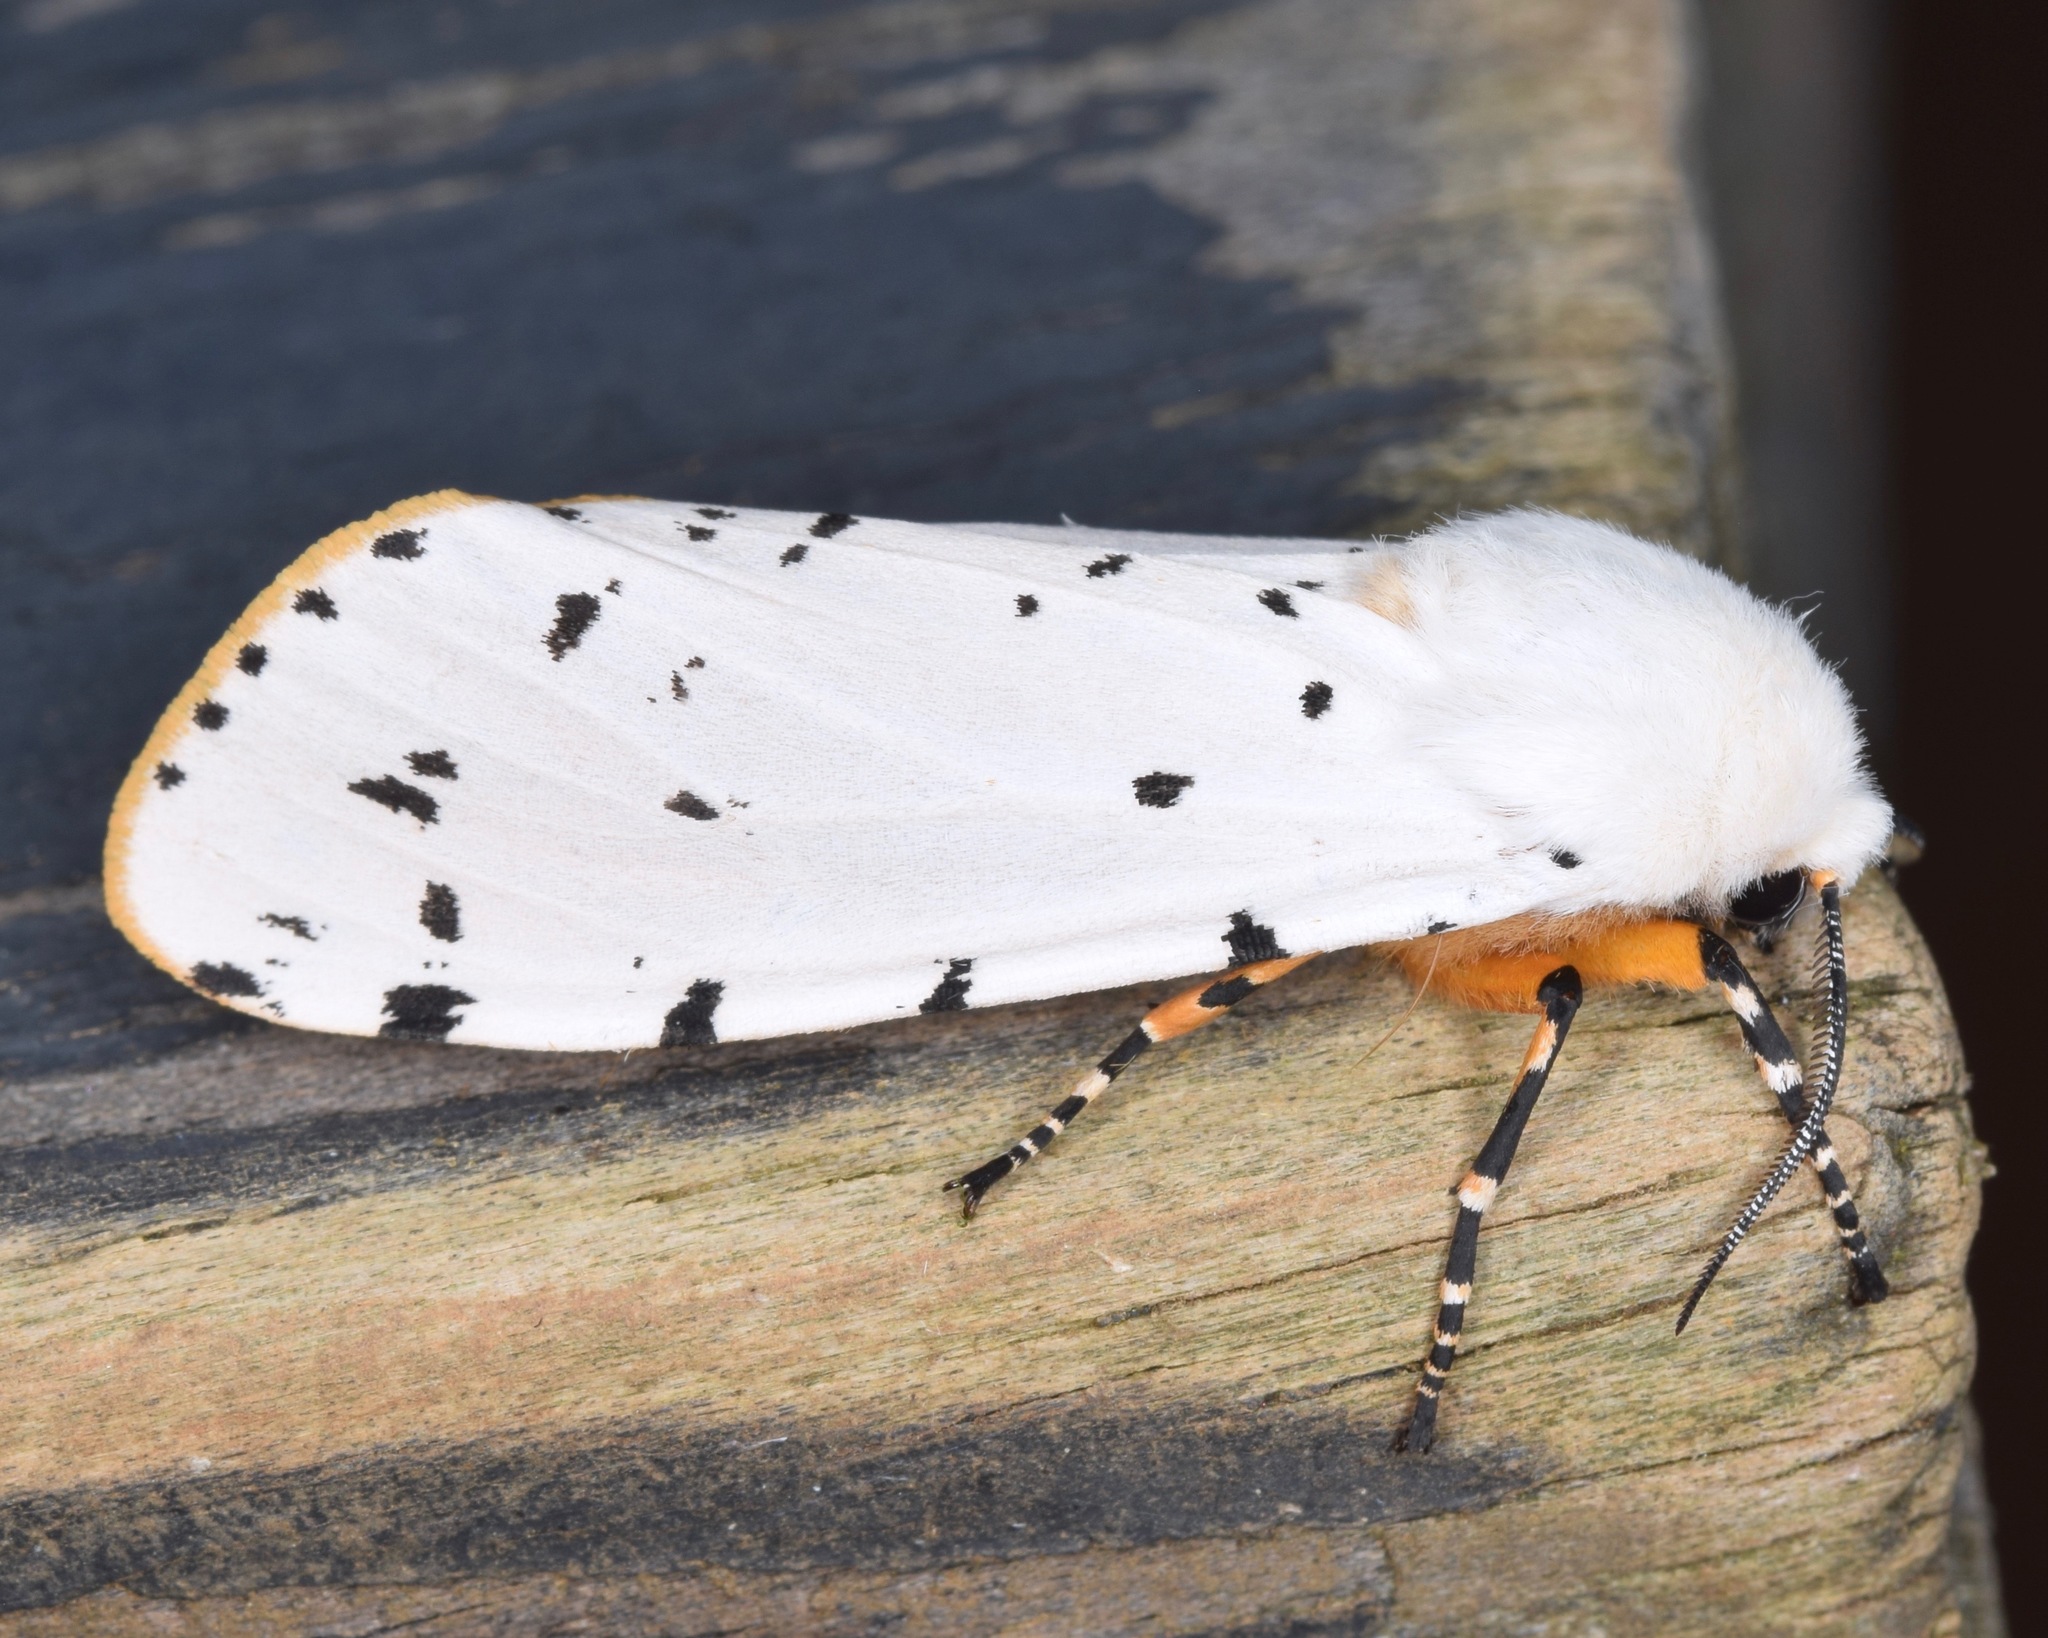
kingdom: Animalia
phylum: Arthropoda
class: Insecta
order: Lepidoptera
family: Erebidae
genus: Estigmene
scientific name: Estigmene acrea
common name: Salt marsh moth
